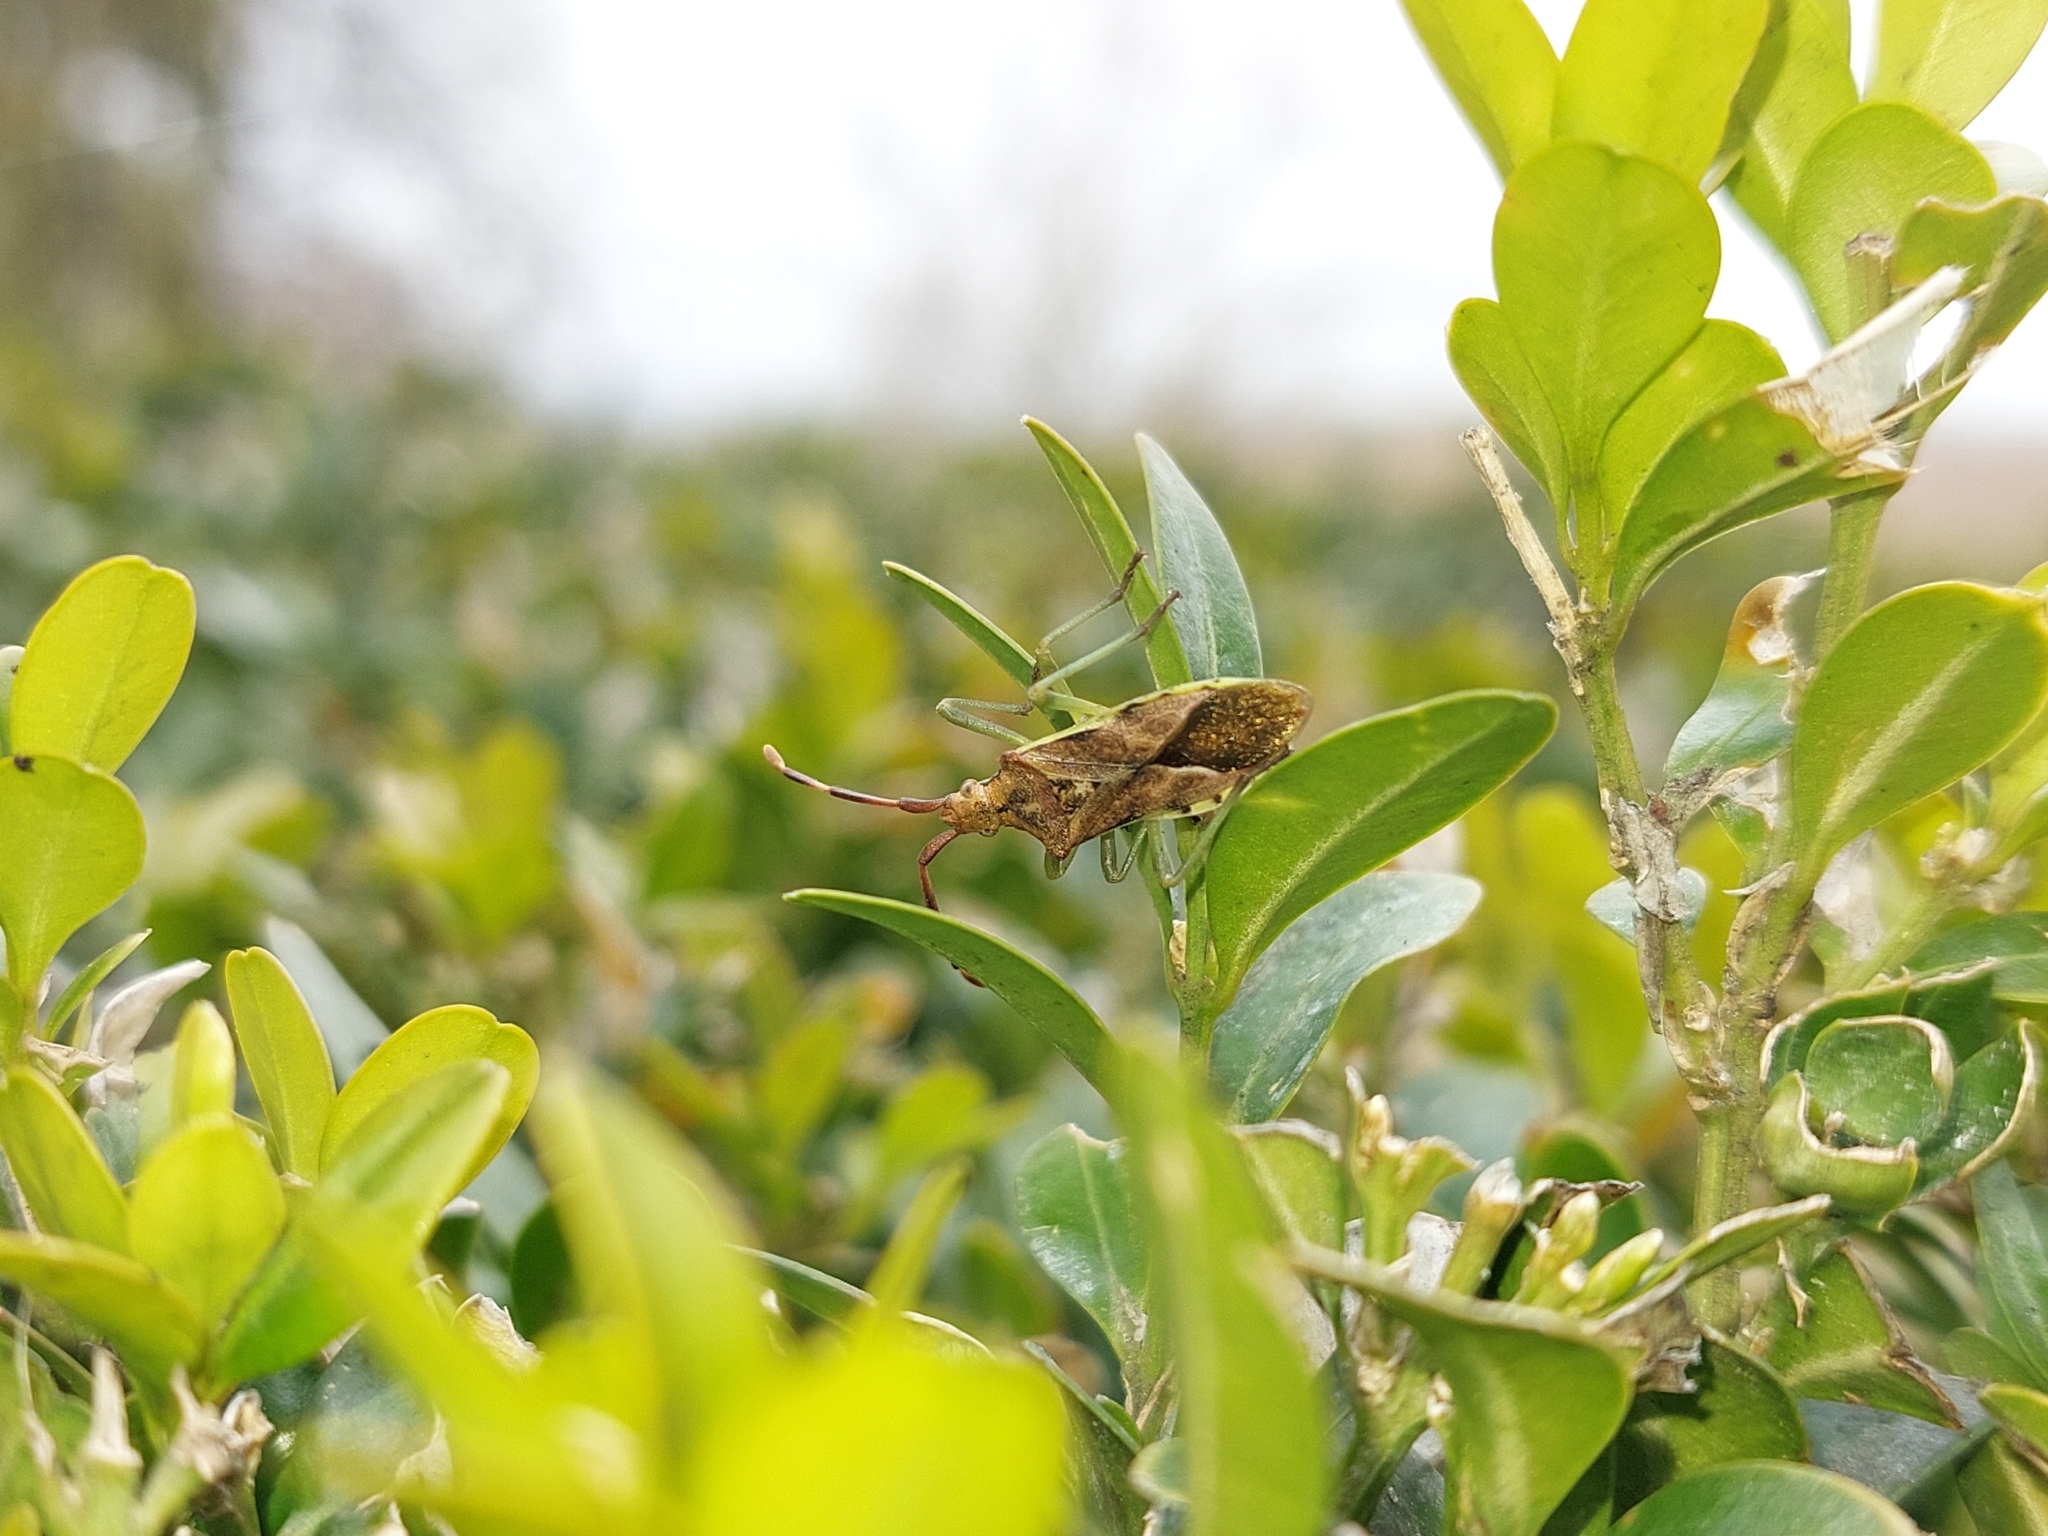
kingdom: Animalia
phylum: Arthropoda
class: Insecta
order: Hemiptera
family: Coreidae
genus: Gonocerus
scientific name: Gonocerus juniperi
